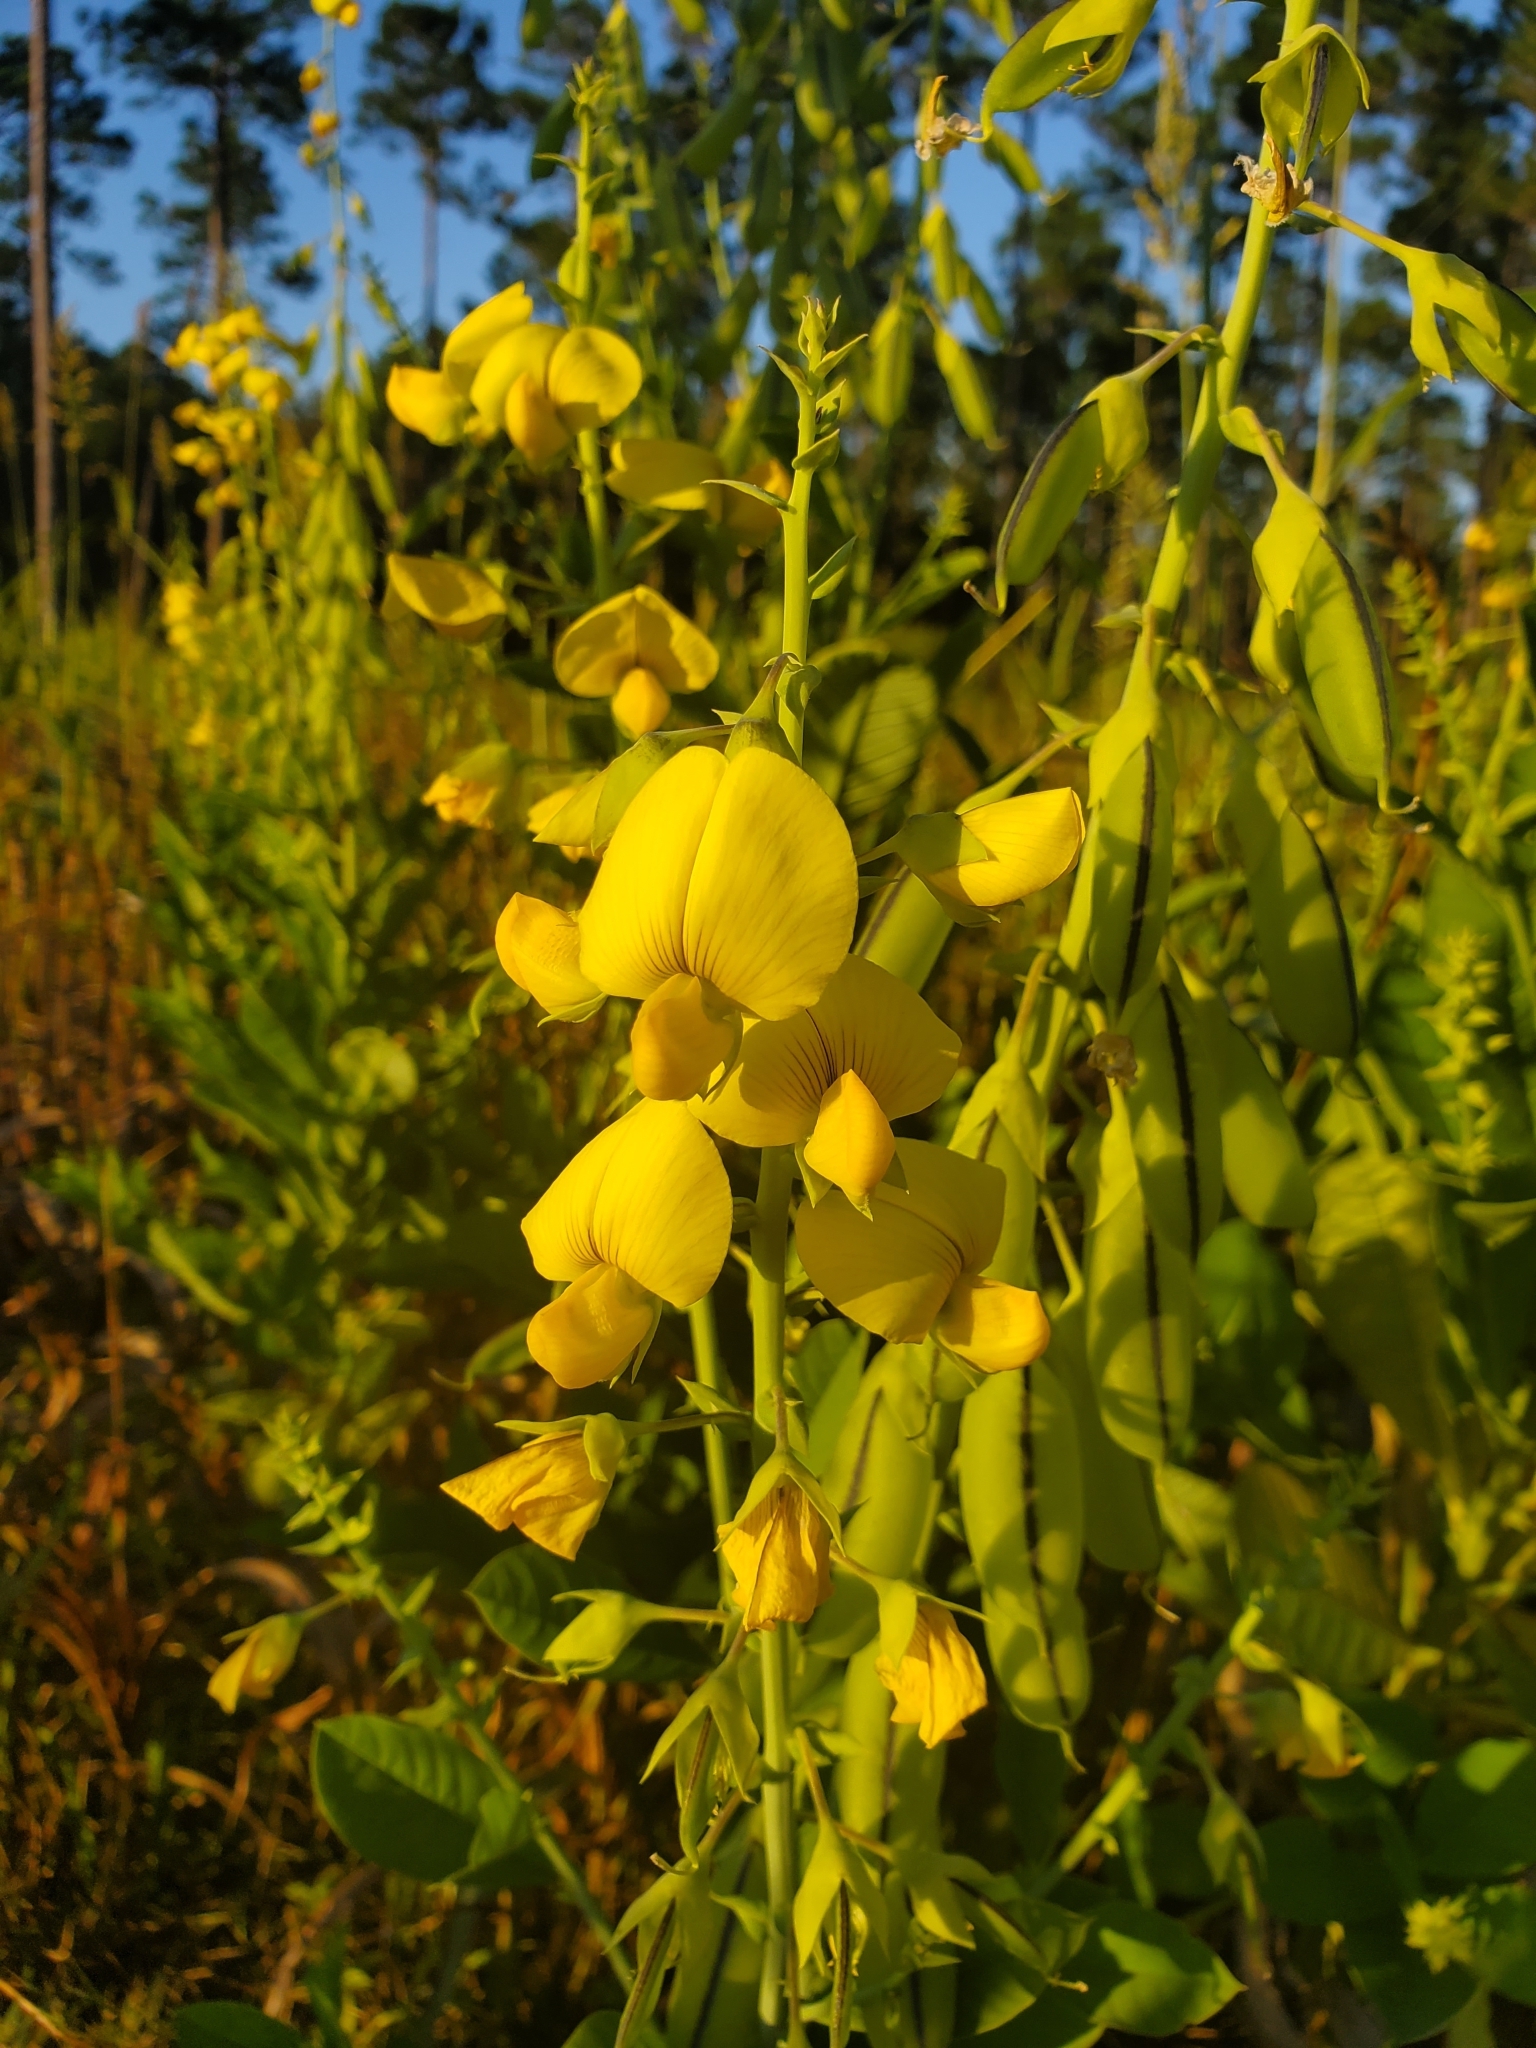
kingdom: Plantae
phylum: Tracheophyta
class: Magnoliopsida
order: Fabales
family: Fabaceae
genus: Crotalaria
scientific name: Crotalaria spectabilis
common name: Showy rattlebox
